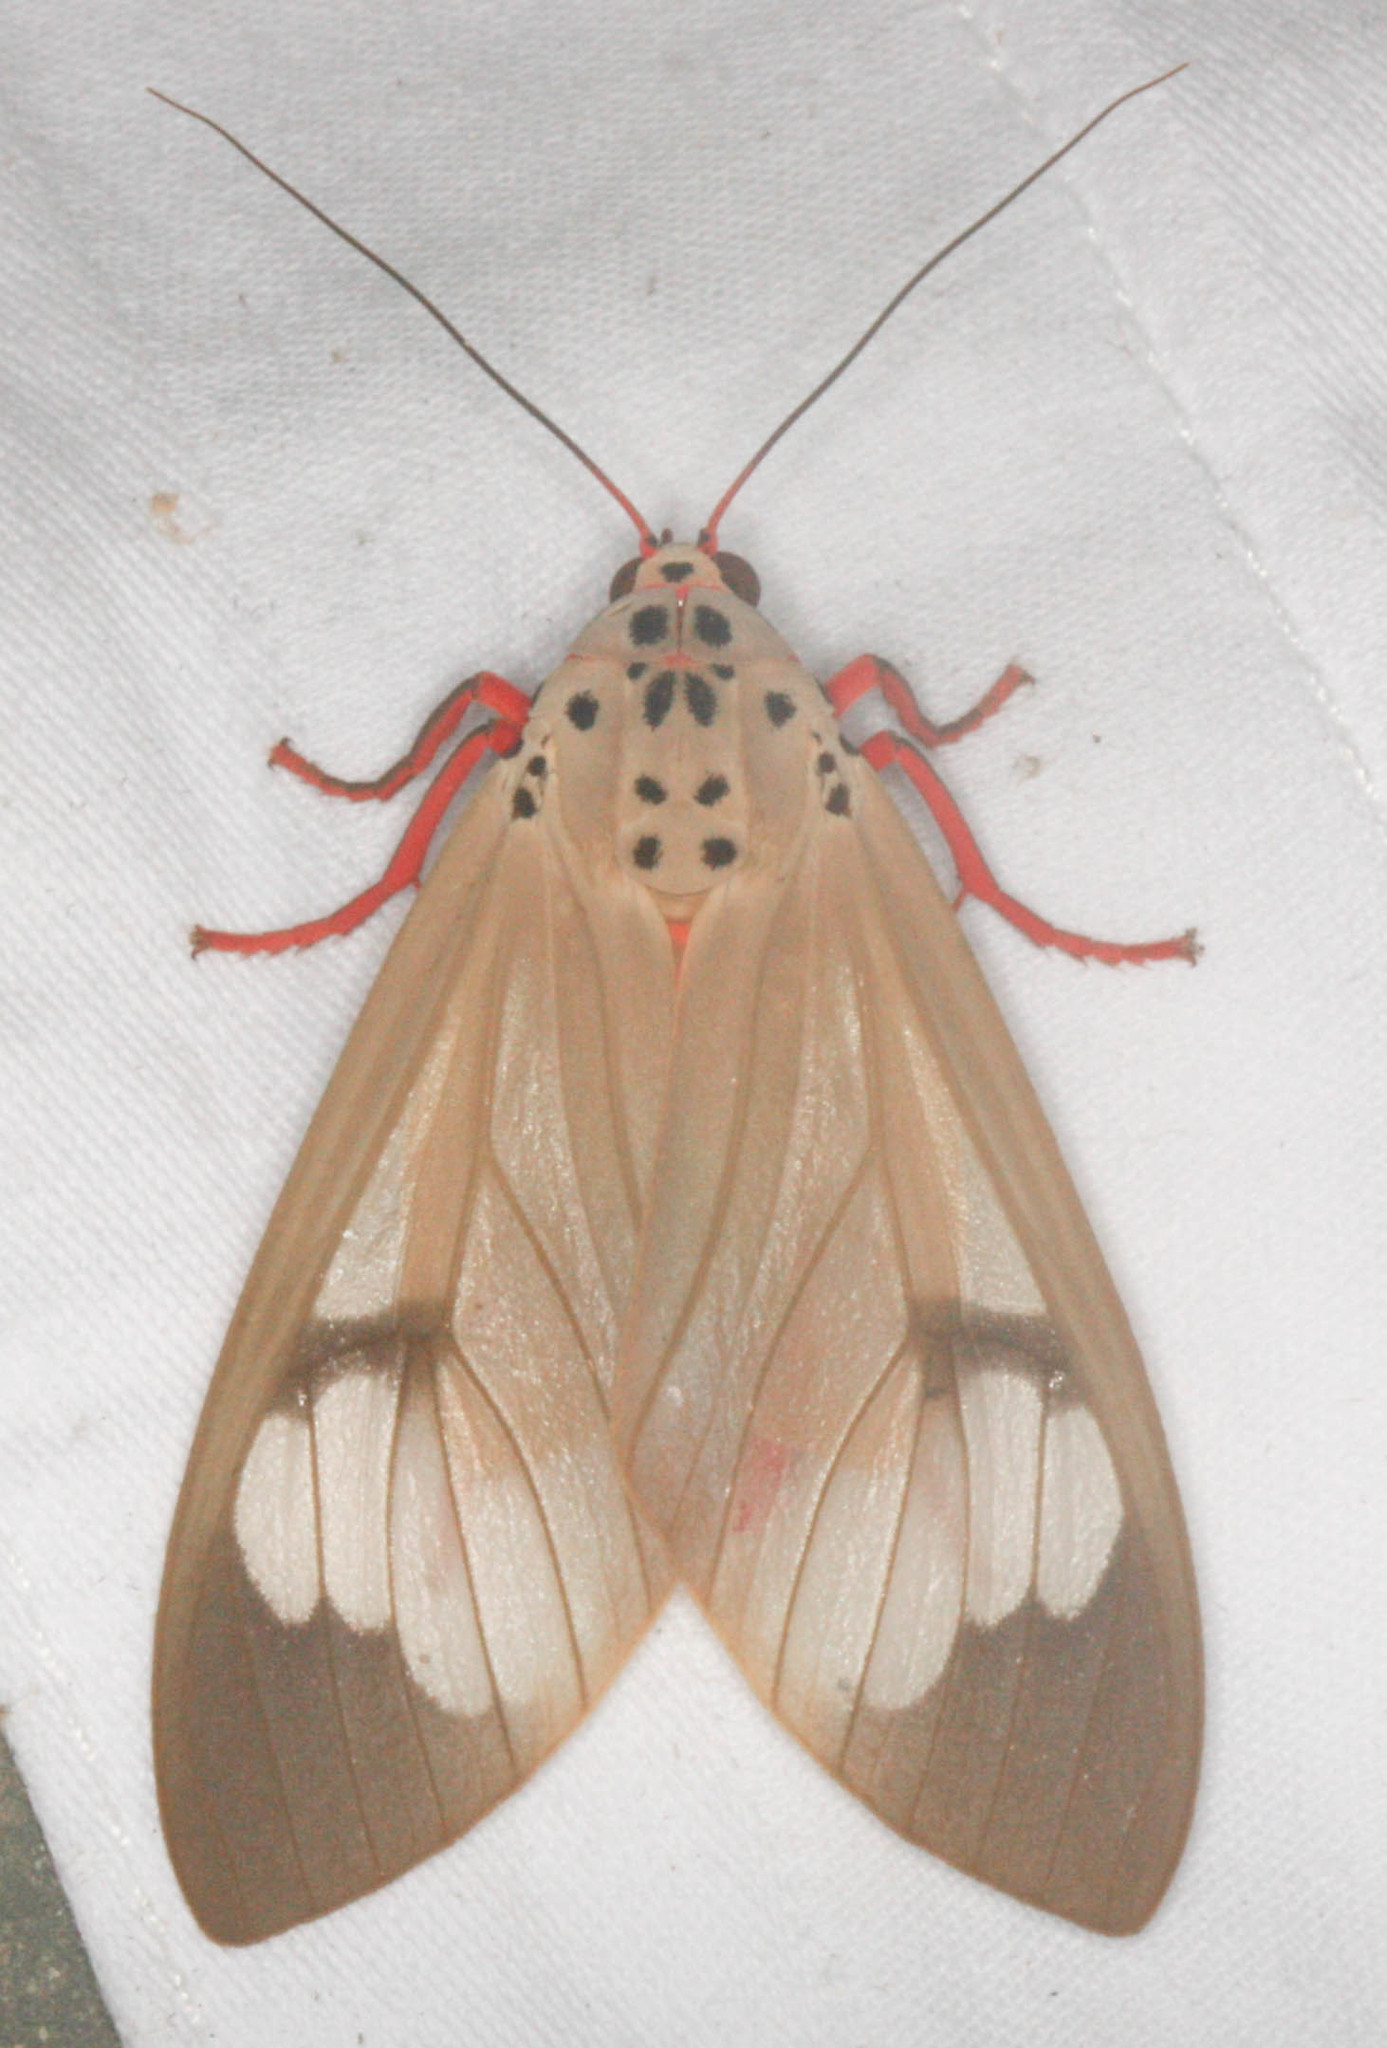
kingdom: Animalia
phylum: Arthropoda
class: Insecta
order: Lepidoptera
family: Erebidae
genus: Amerila
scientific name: Amerila astreus
